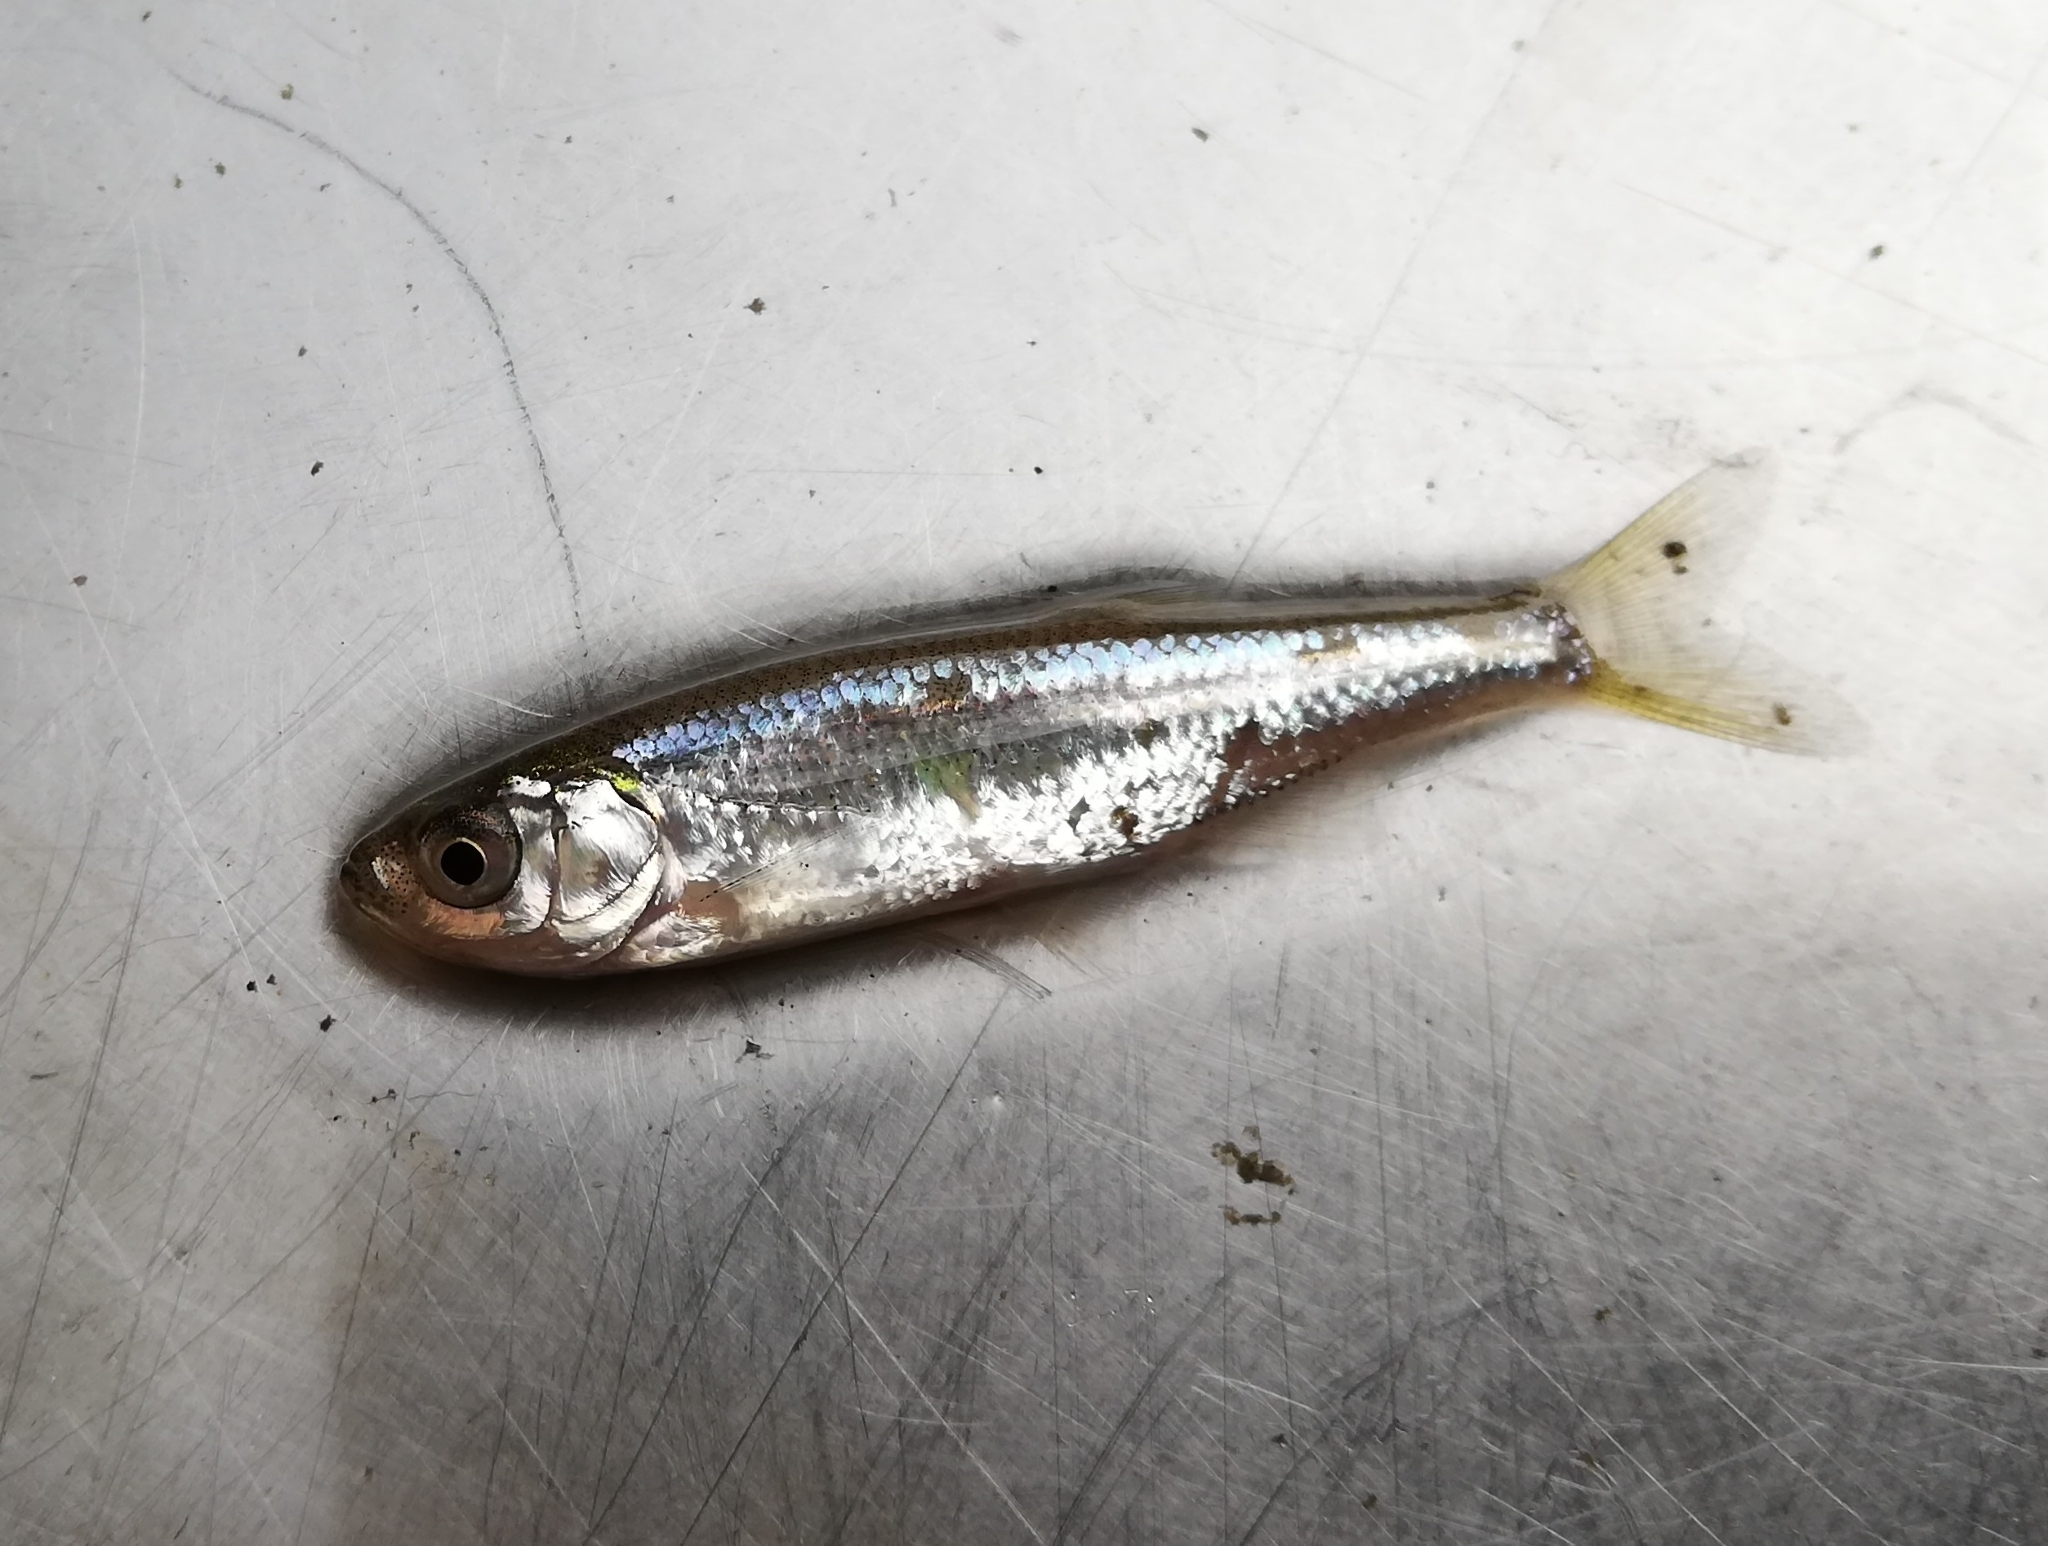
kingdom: Animalia
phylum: Chordata
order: Cypriniformes
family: Cyprinidae
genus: Leucaspius
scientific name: Leucaspius delineatus
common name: Sunbleak
